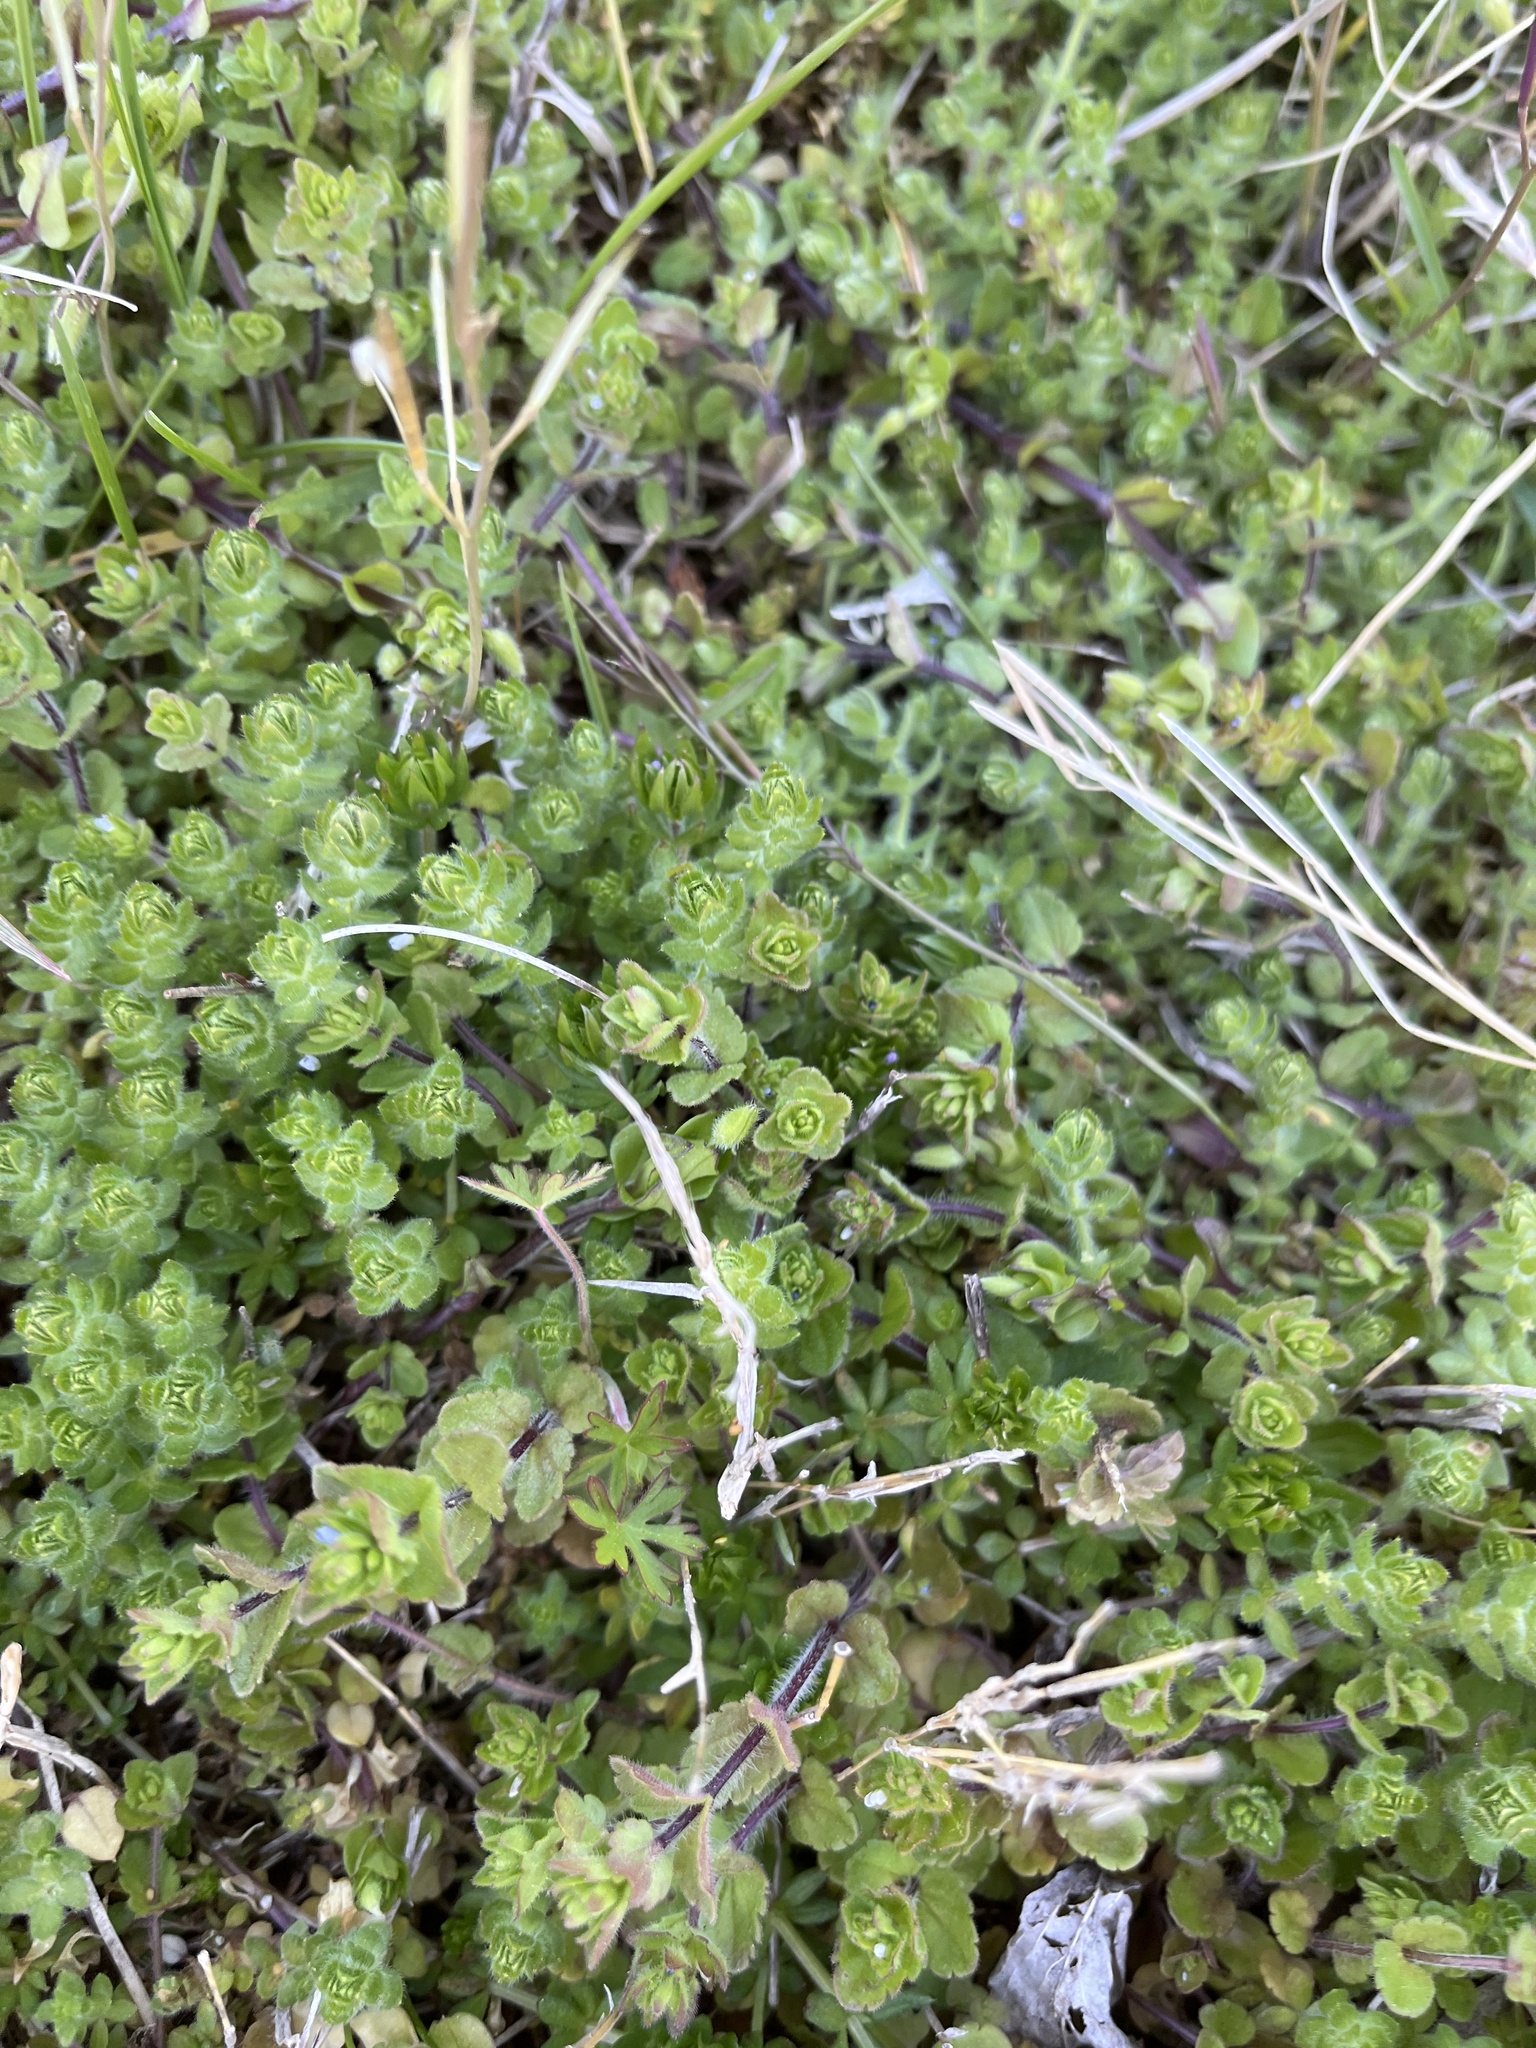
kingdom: Plantae
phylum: Tracheophyta
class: Magnoliopsida
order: Gentianales
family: Rubiaceae
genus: Cruciata
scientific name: Cruciata pedemontana
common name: Piedmont bedstraw
